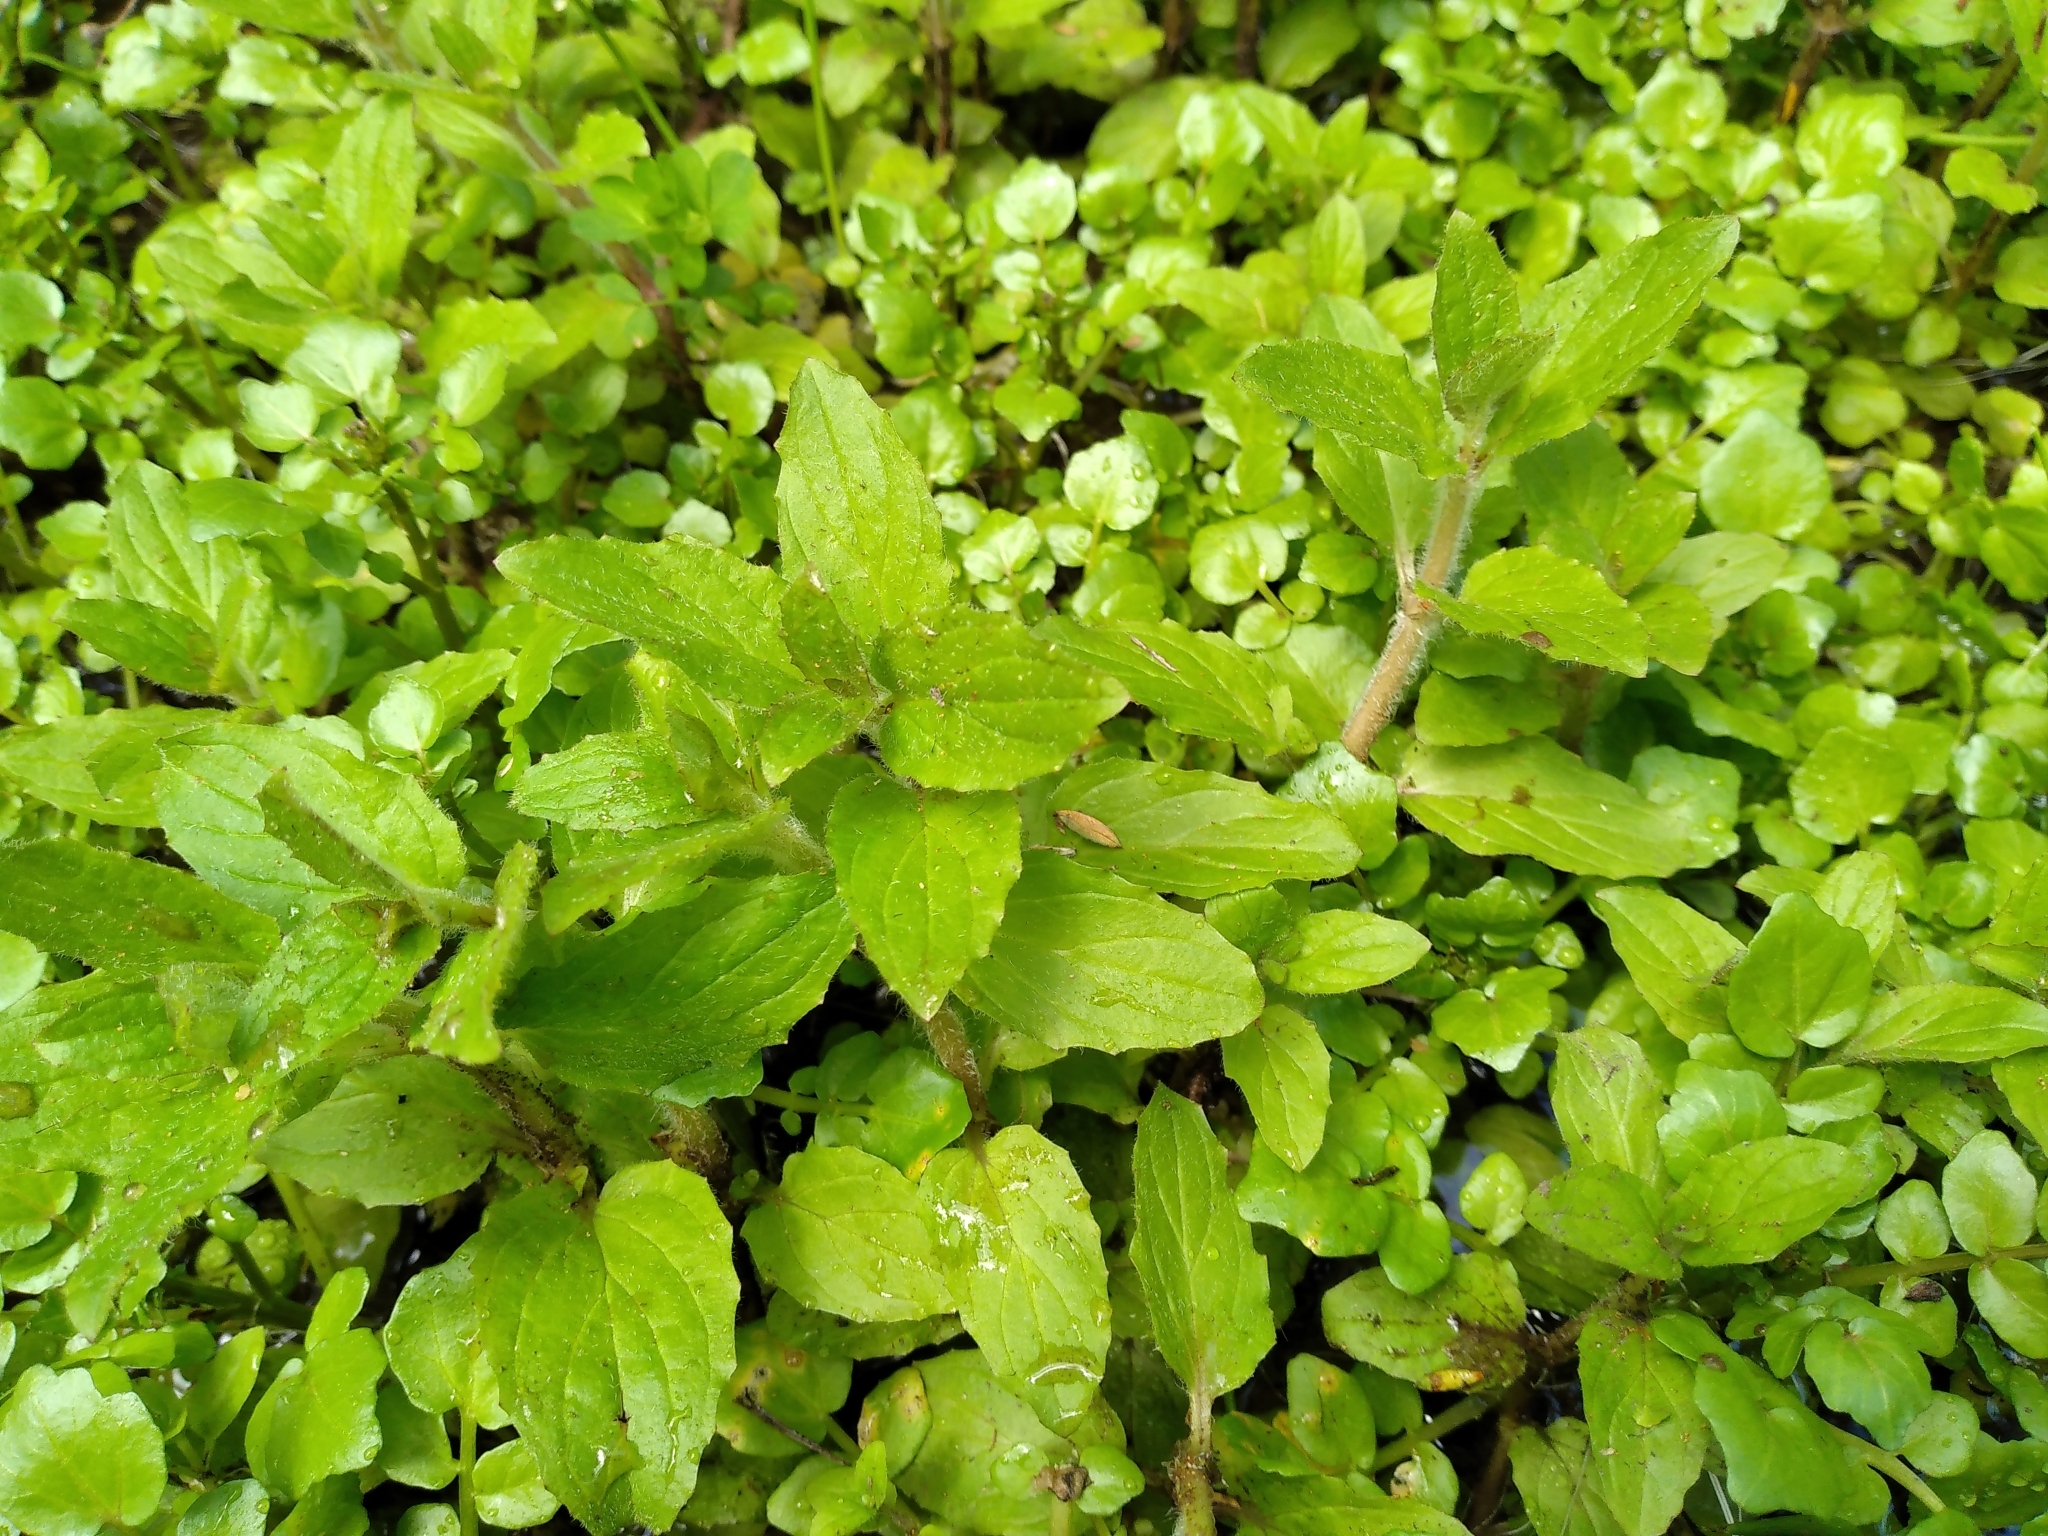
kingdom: Plantae
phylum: Tracheophyta
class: Magnoliopsida
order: Lamiales
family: Phrymaceae
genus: Erythranthe
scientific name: Erythranthe moschata
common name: Muskflower
